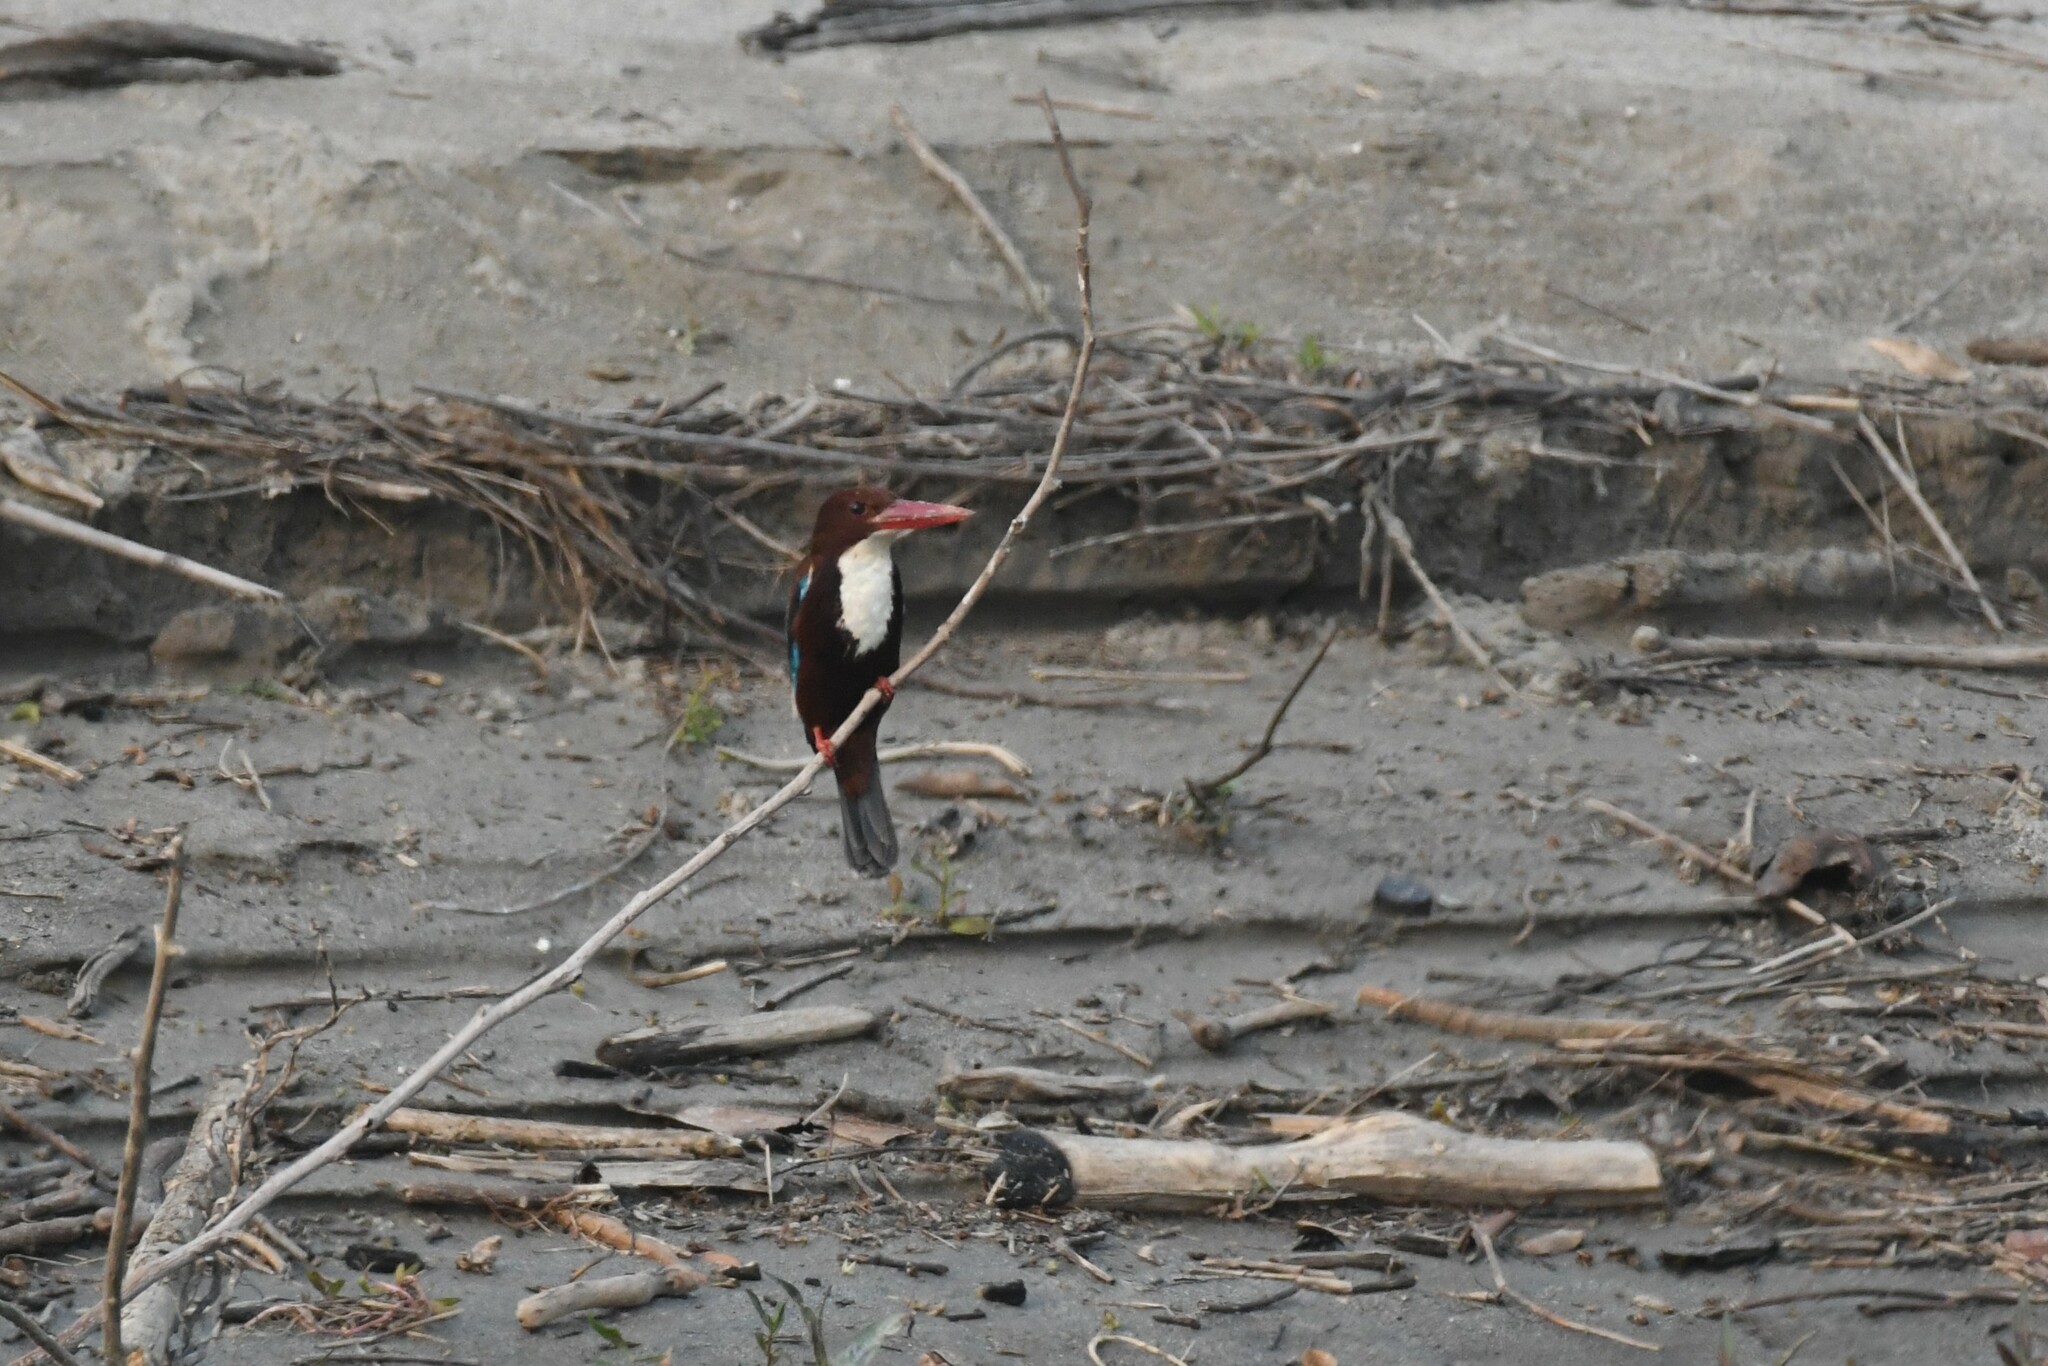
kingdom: Animalia
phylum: Chordata
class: Aves
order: Coraciiformes
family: Alcedinidae
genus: Halcyon
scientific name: Halcyon smyrnensis
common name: White-throated kingfisher
